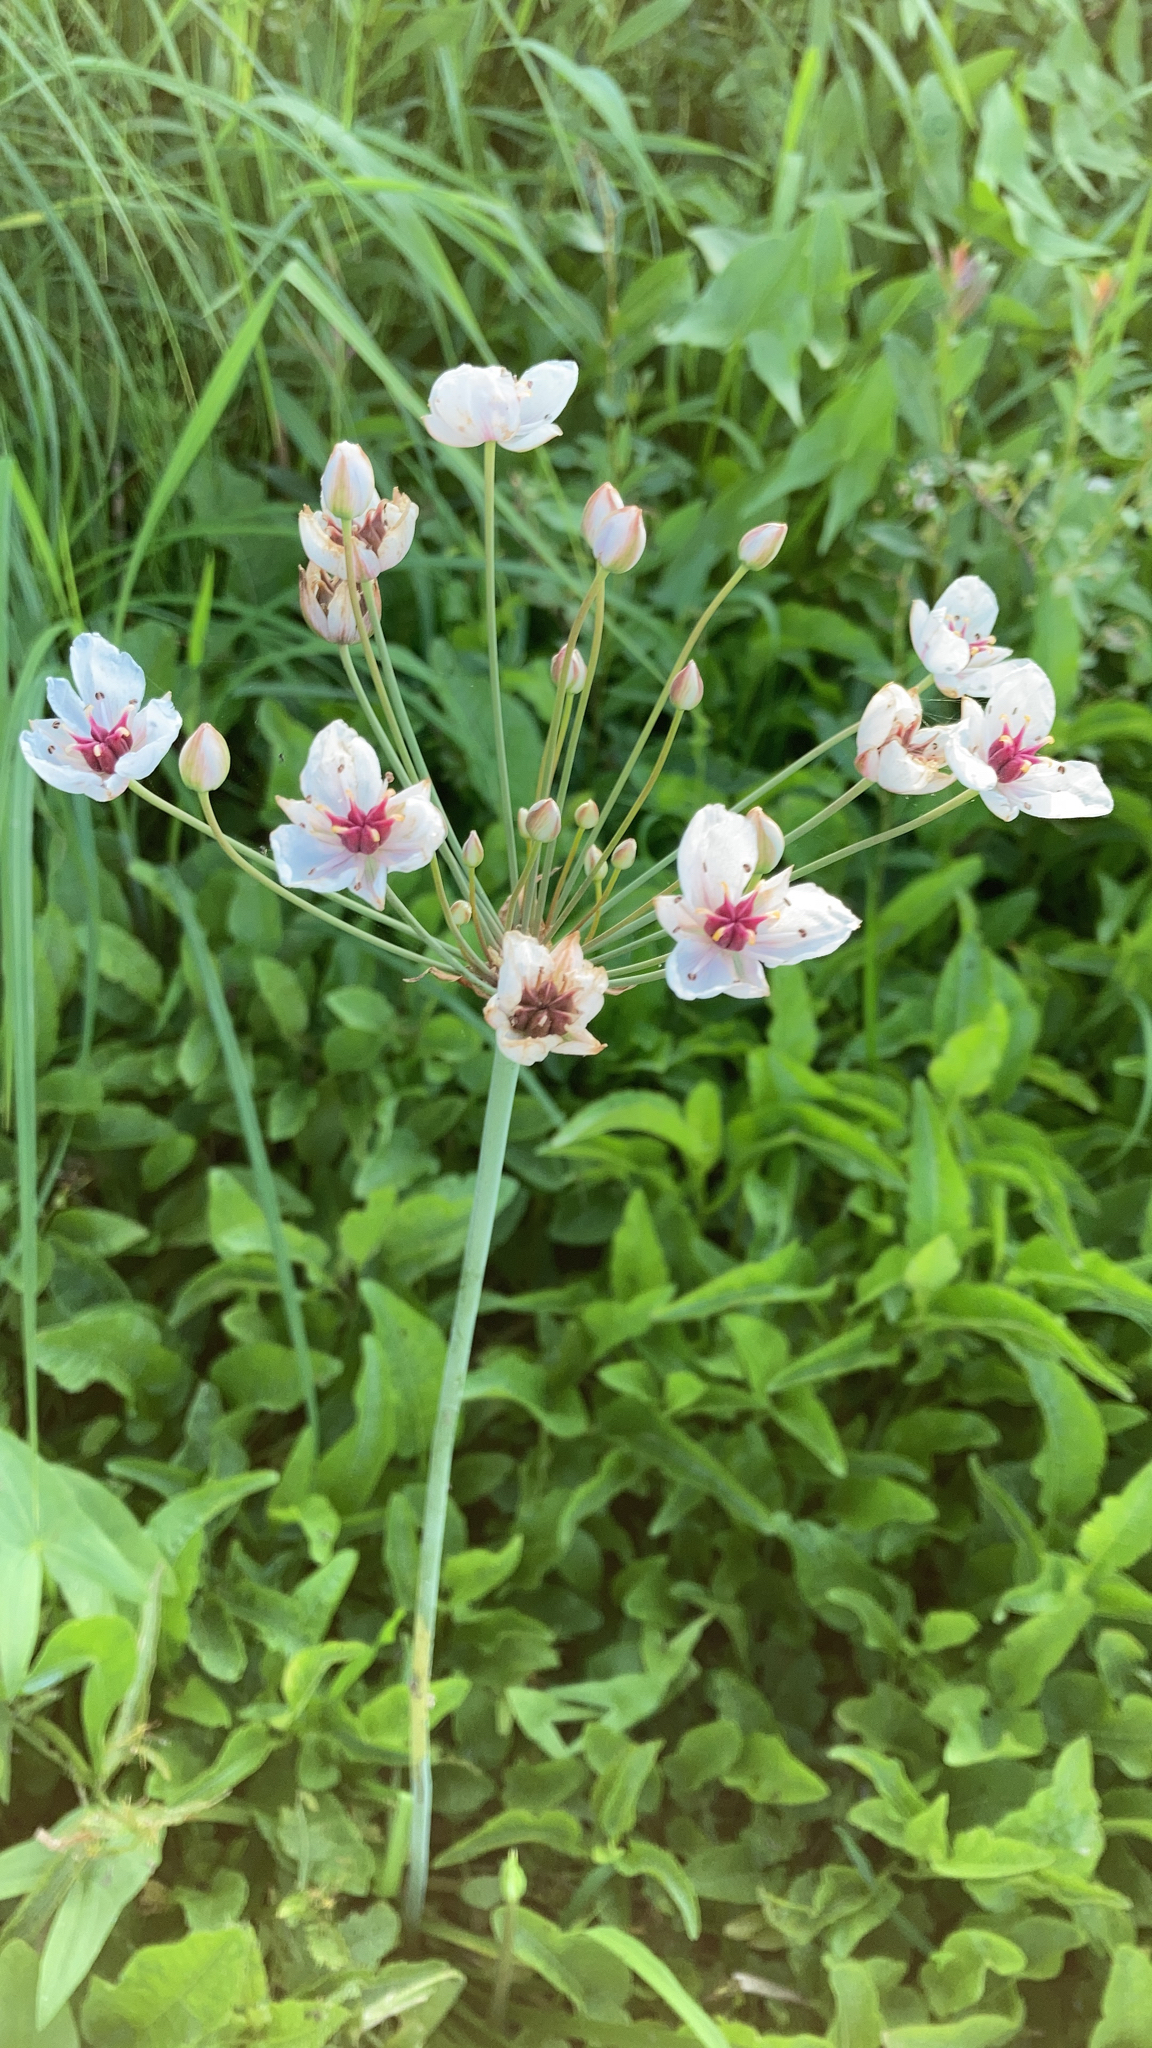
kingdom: Plantae
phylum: Tracheophyta
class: Liliopsida
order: Alismatales
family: Butomaceae
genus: Butomus
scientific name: Butomus umbellatus
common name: Flowering-rush
